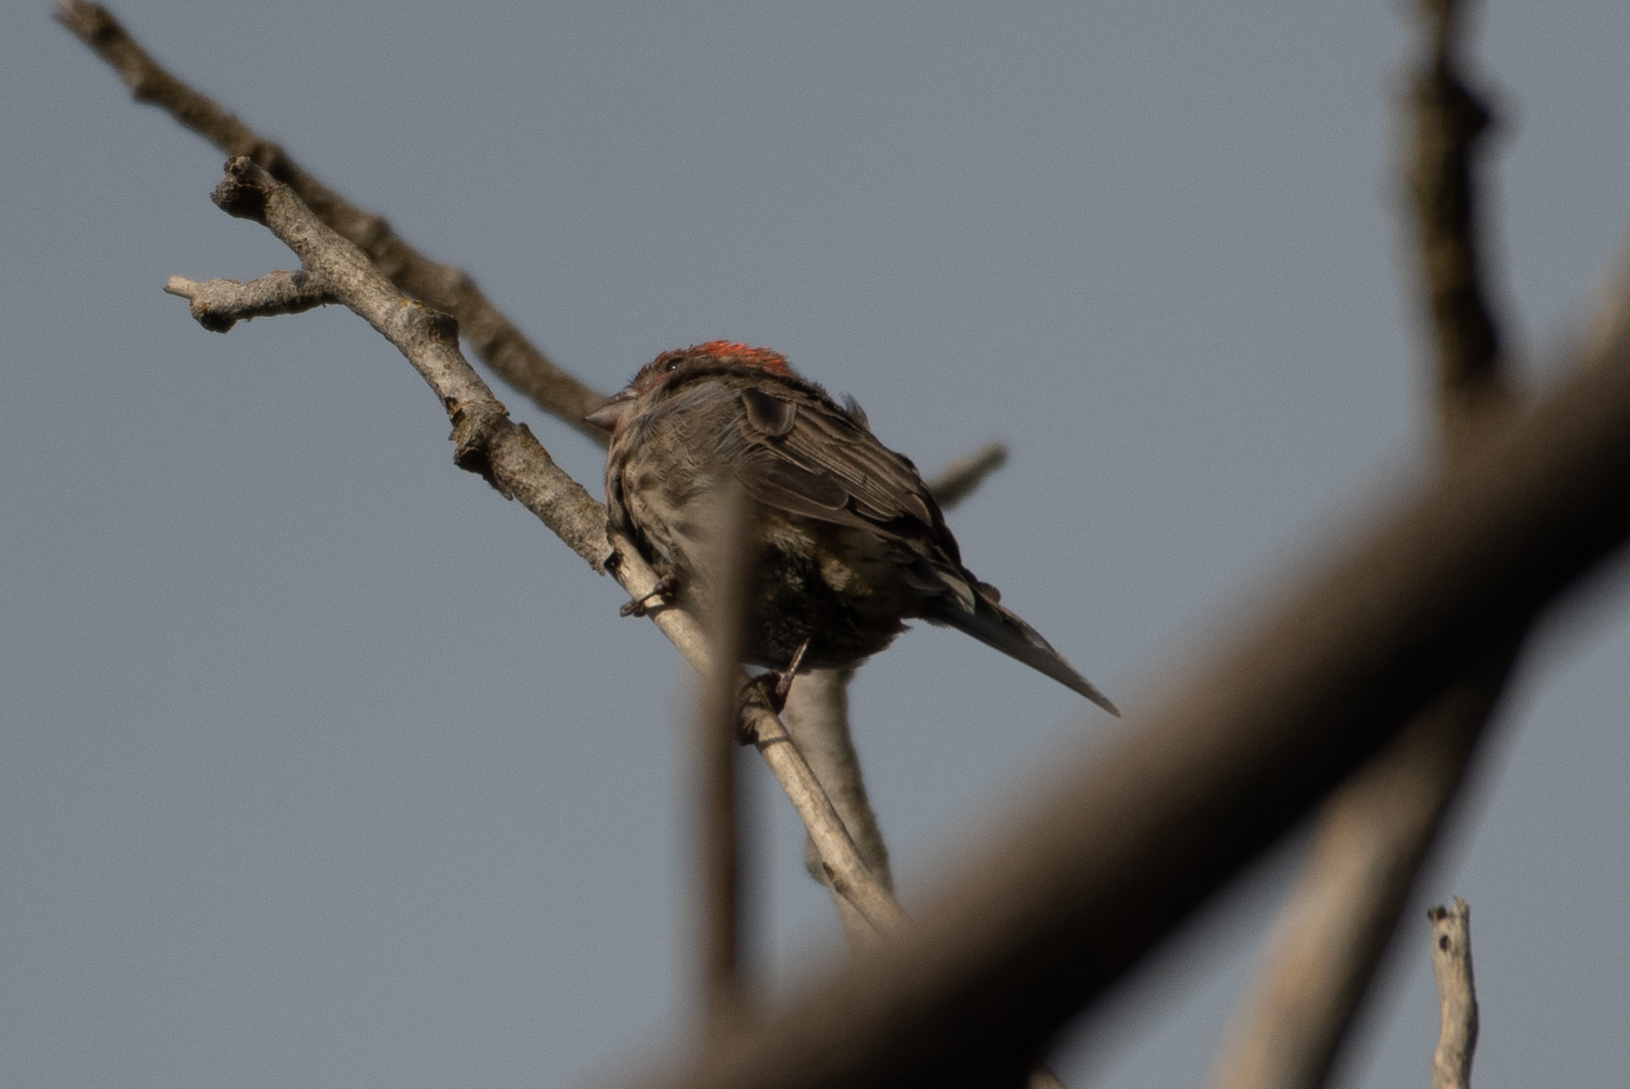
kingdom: Animalia
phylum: Chordata
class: Aves
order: Passeriformes
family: Fringillidae
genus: Haemorhous
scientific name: Haemorhous mexicanus
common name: House finch
